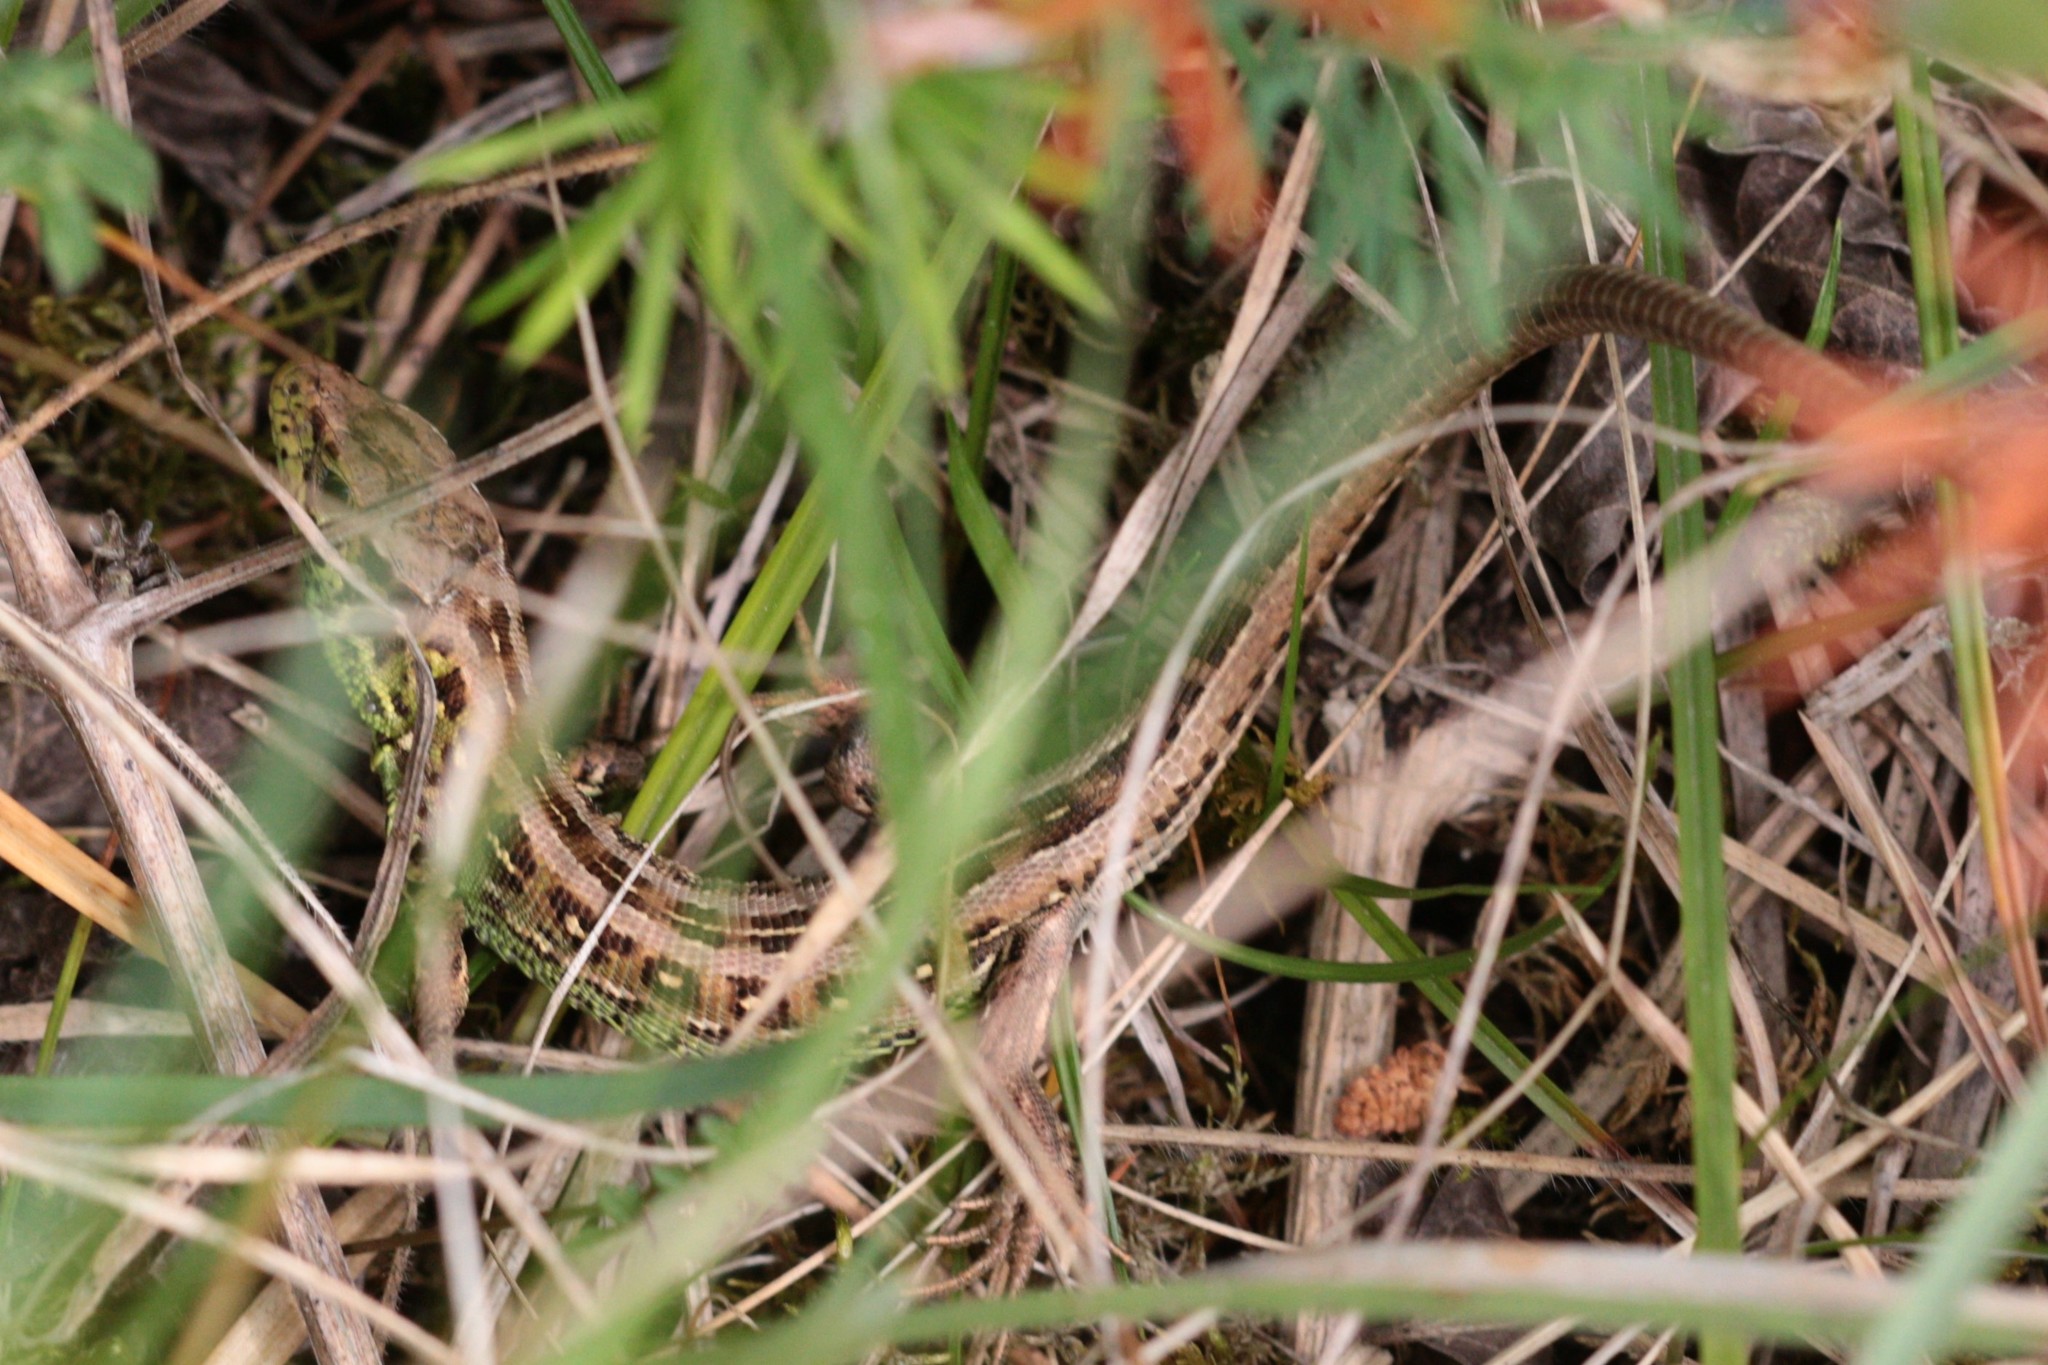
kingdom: Animalia
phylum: Chordata
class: Squamata
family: Lacertidae
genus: Lacerta
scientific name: Lacerta agilis
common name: Sand lizard
